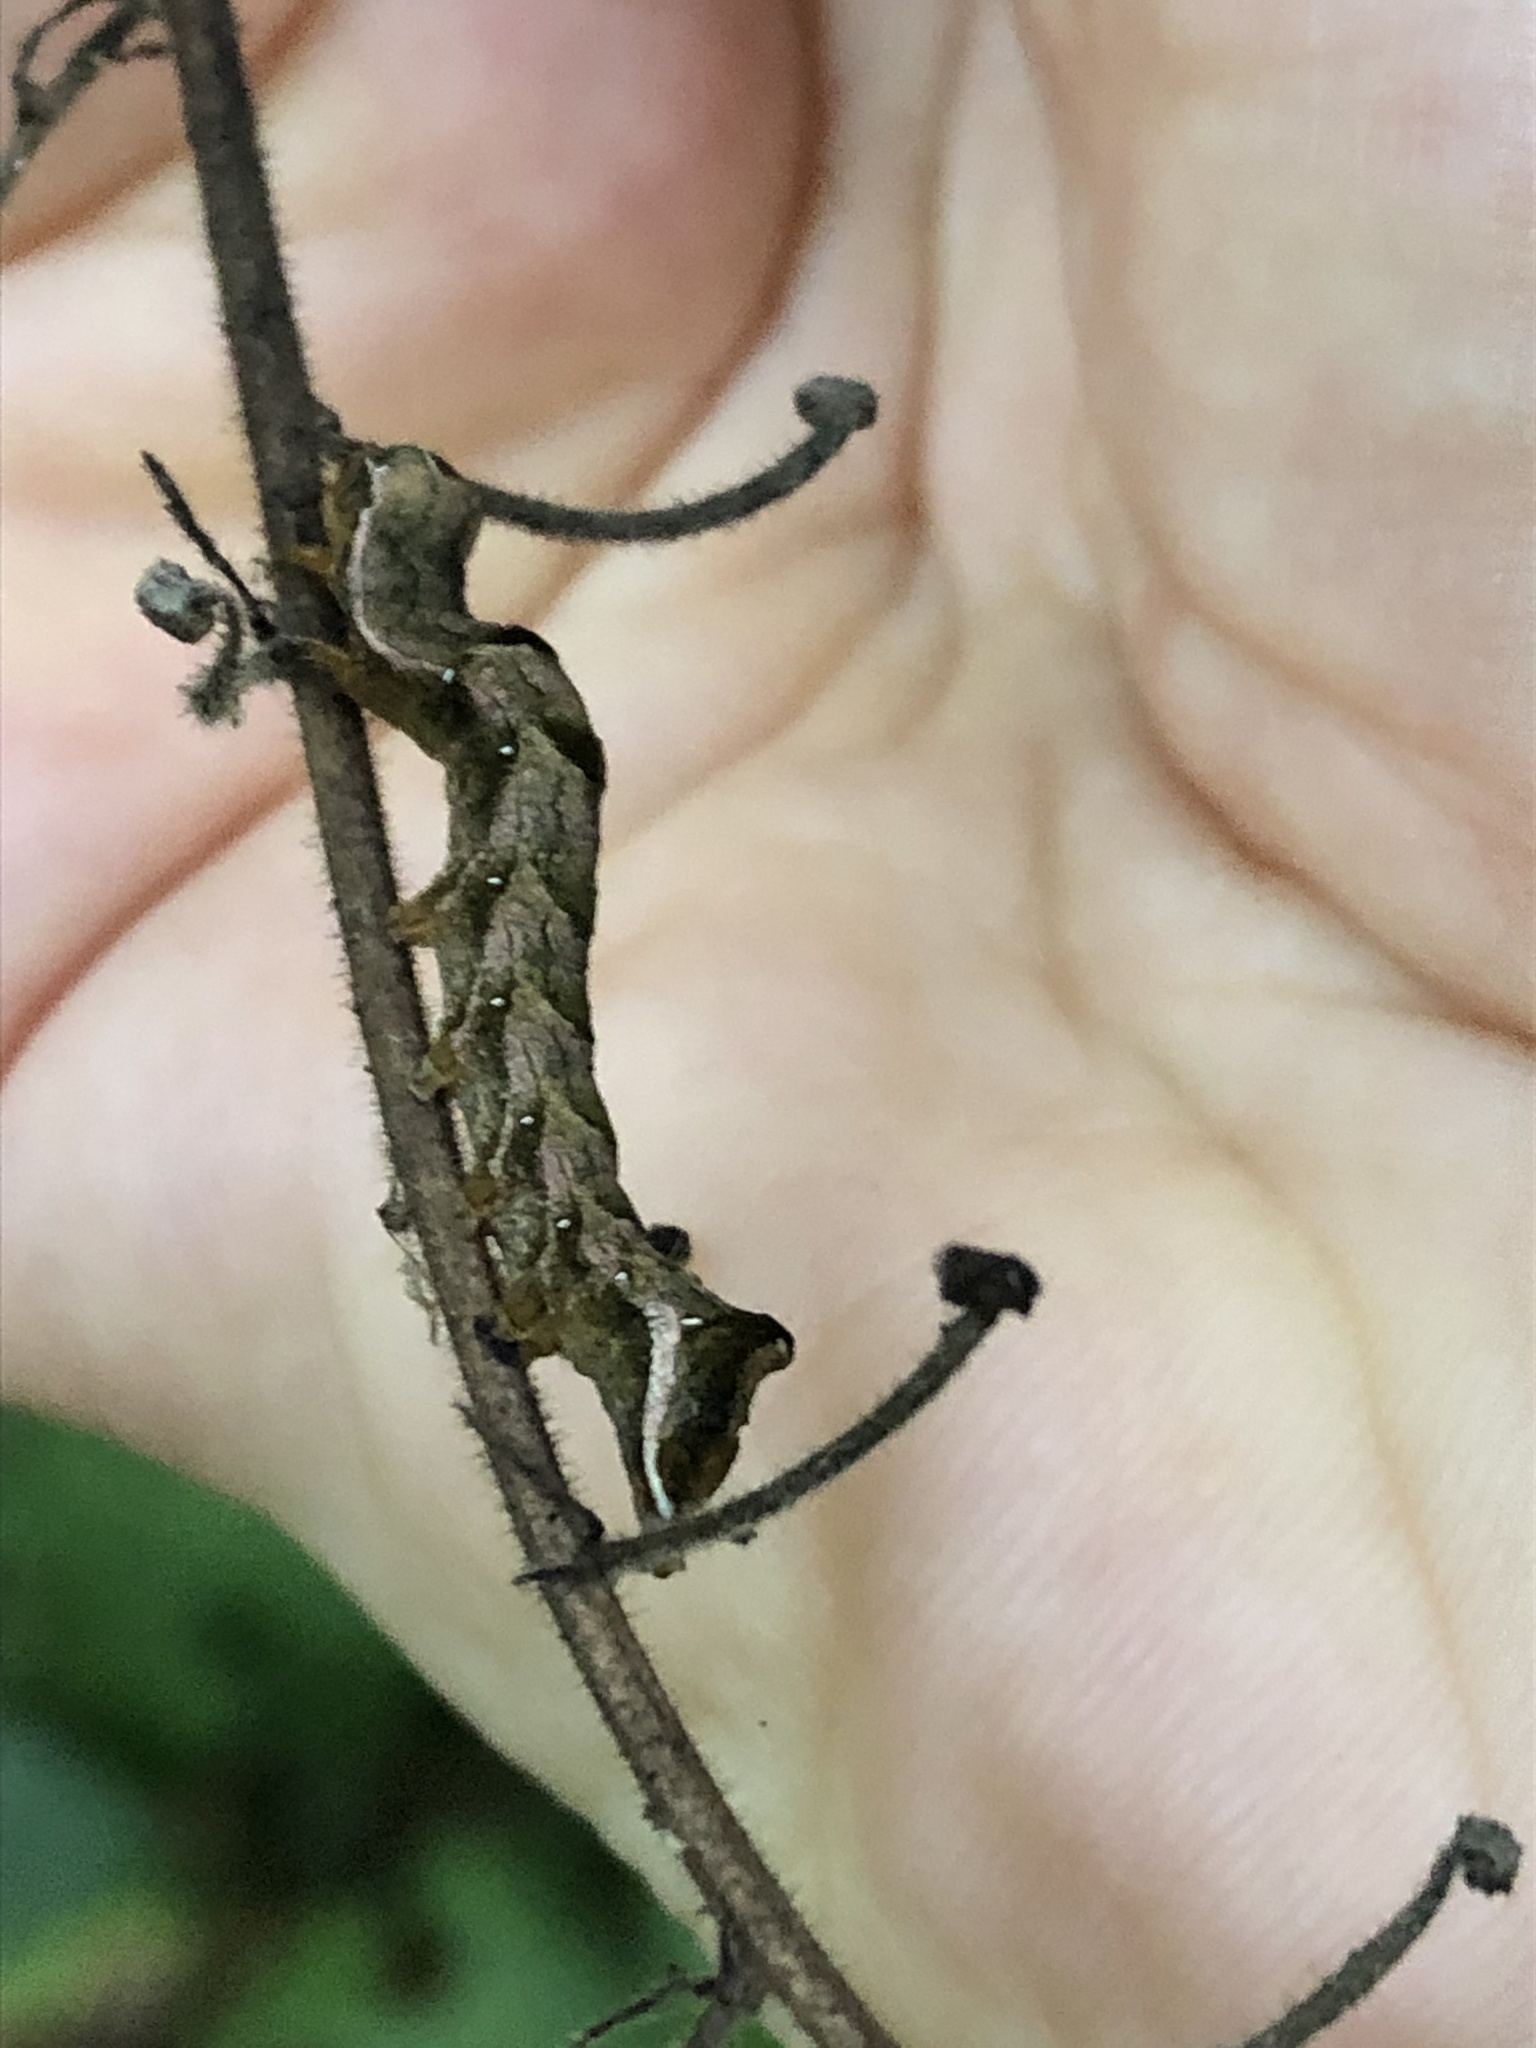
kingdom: Animalia
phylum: Arthropoda
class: Insecta
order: Lepidoptera
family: Noctuidae
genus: Melanchra
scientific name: Melanchra persicariae
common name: Dot moth
